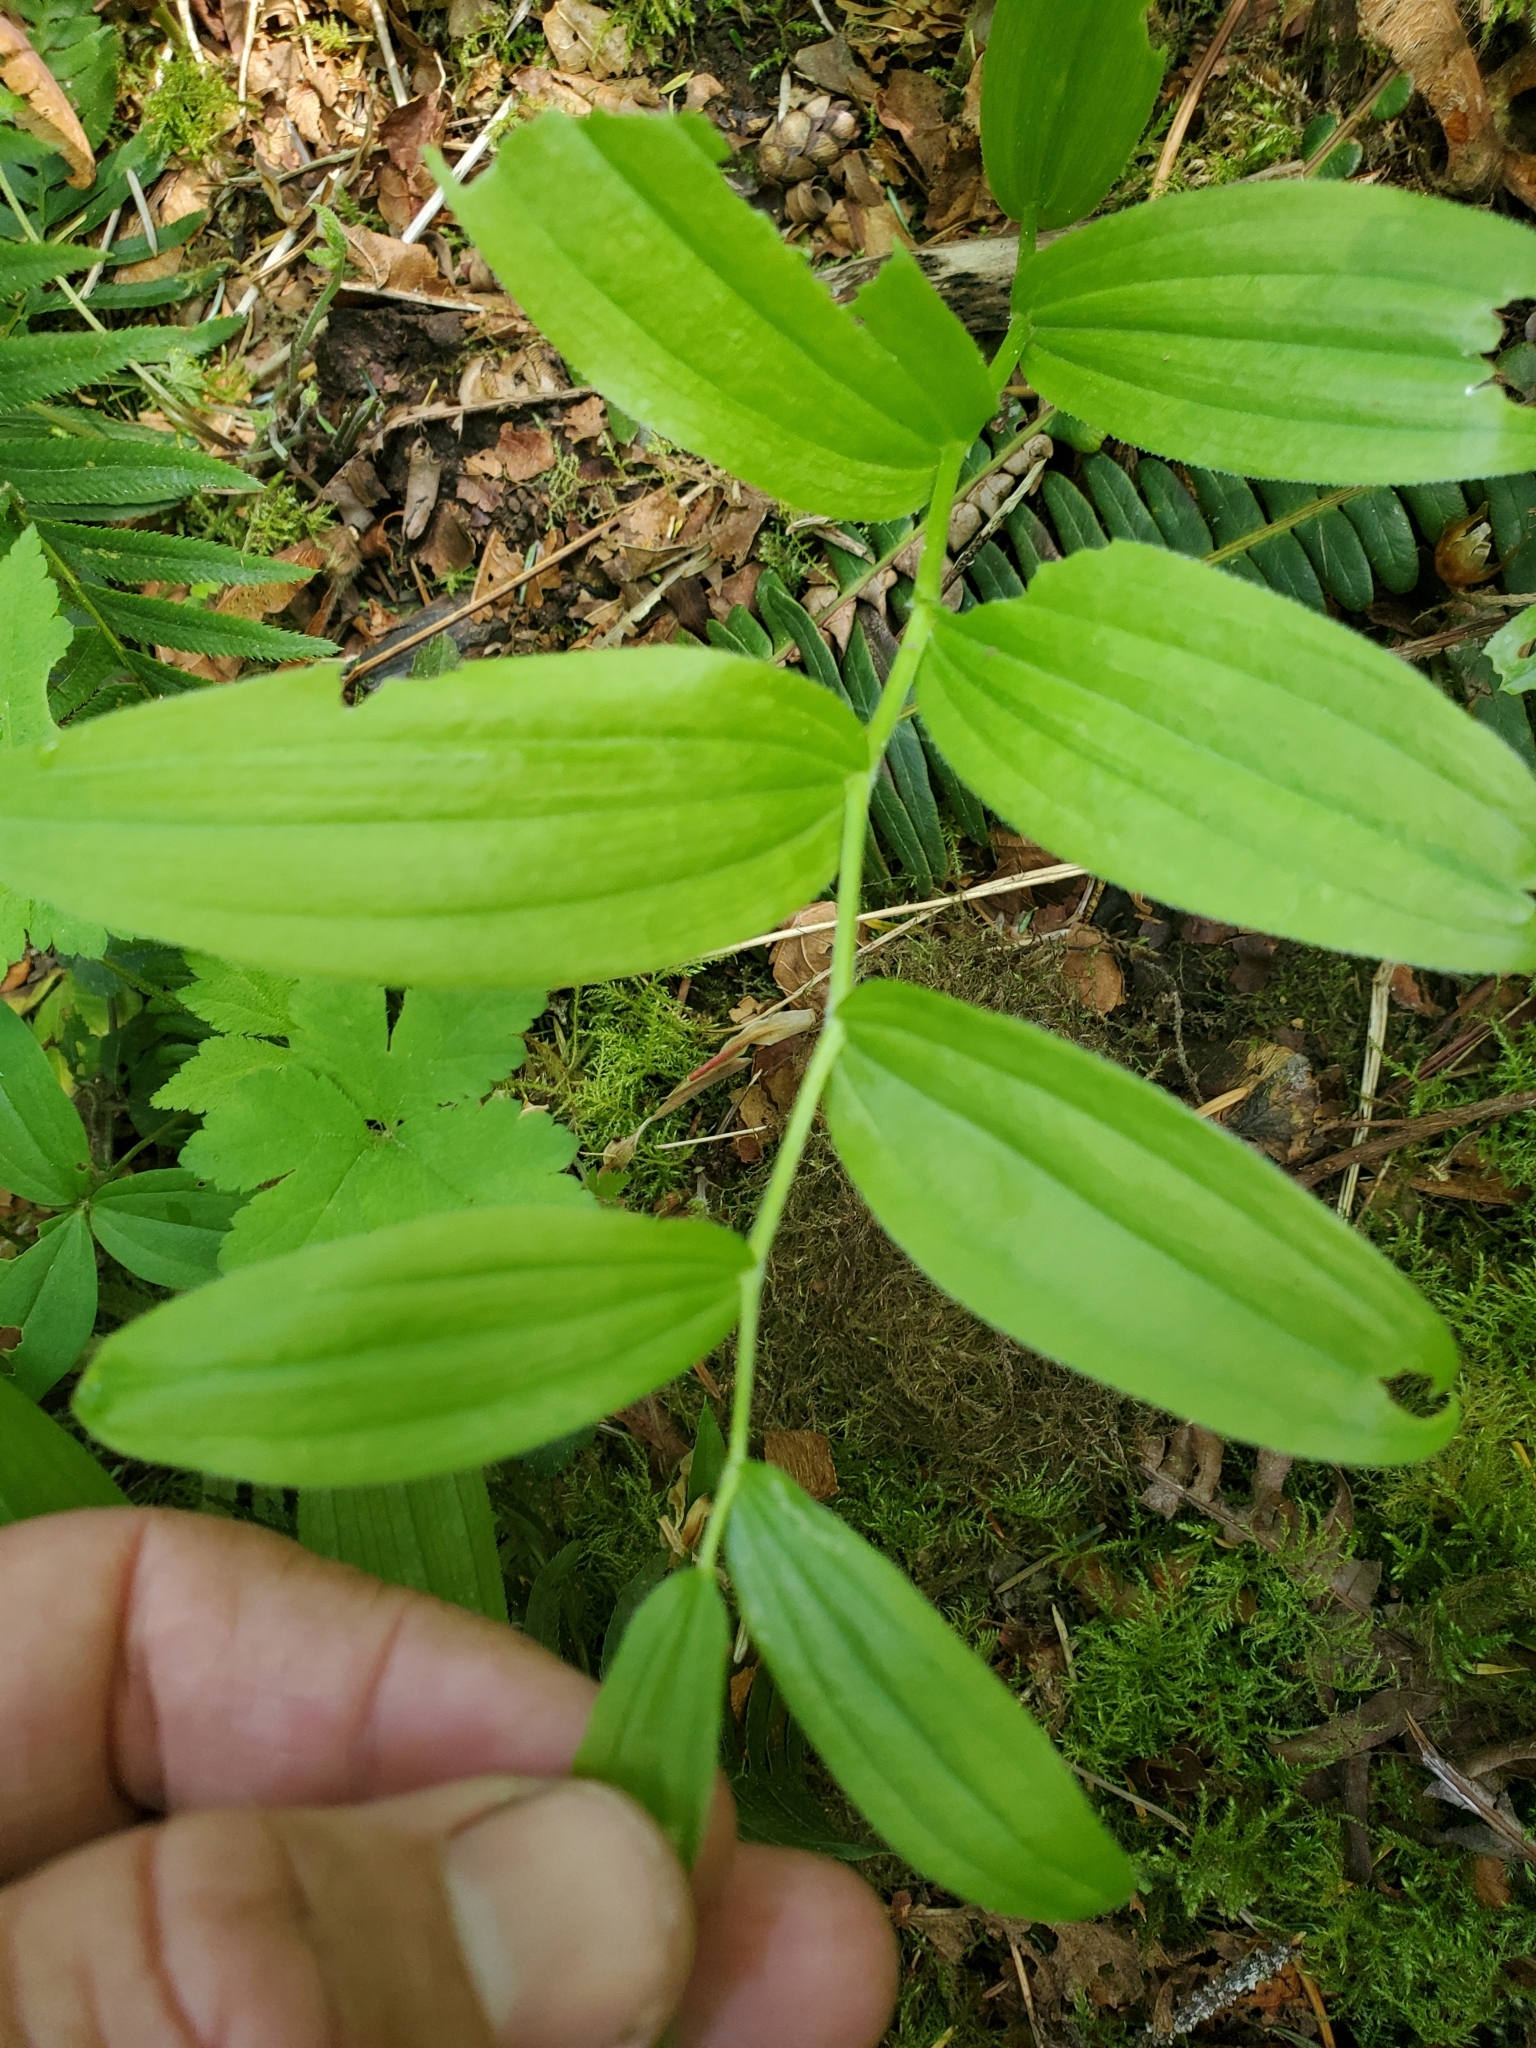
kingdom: Plantae
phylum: Tracheophyta
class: Liliopsida
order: Liliales
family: Liliaceae
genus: Streptopus
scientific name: Streptopus lanceolatus
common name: Rose mandarin
